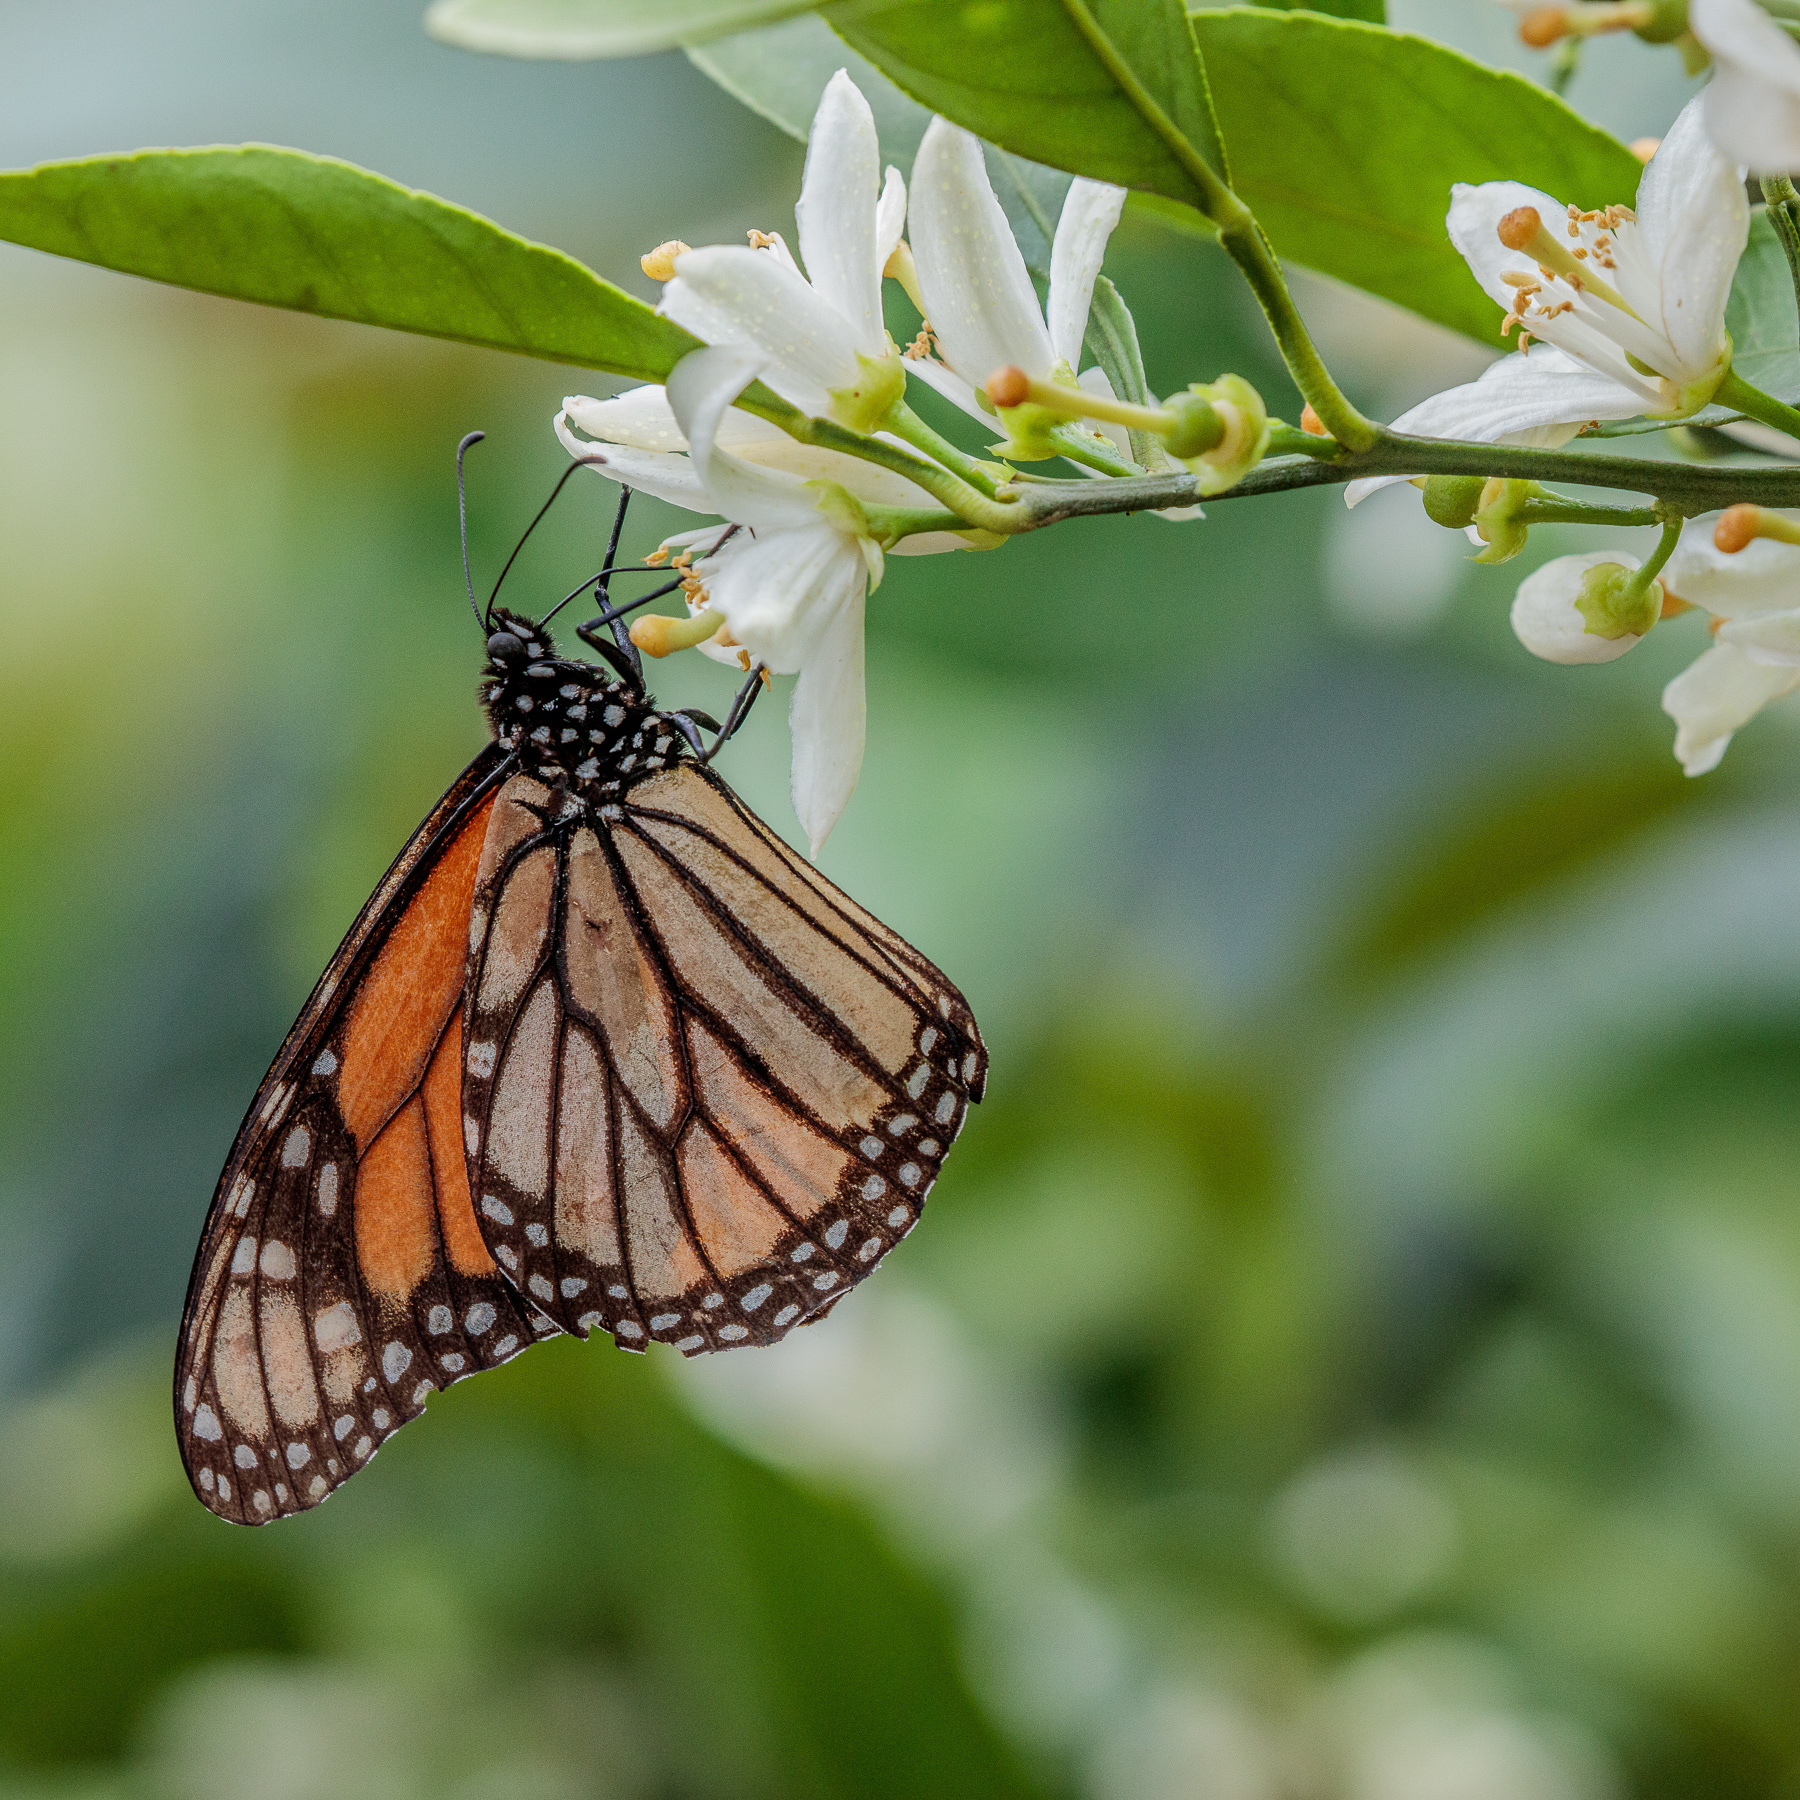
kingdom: Animalia
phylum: Arthropoda
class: Insecta
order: Lepidoptera
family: Nymphalidae
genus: Danaus
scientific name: Danaus plexippus
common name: Monarch
